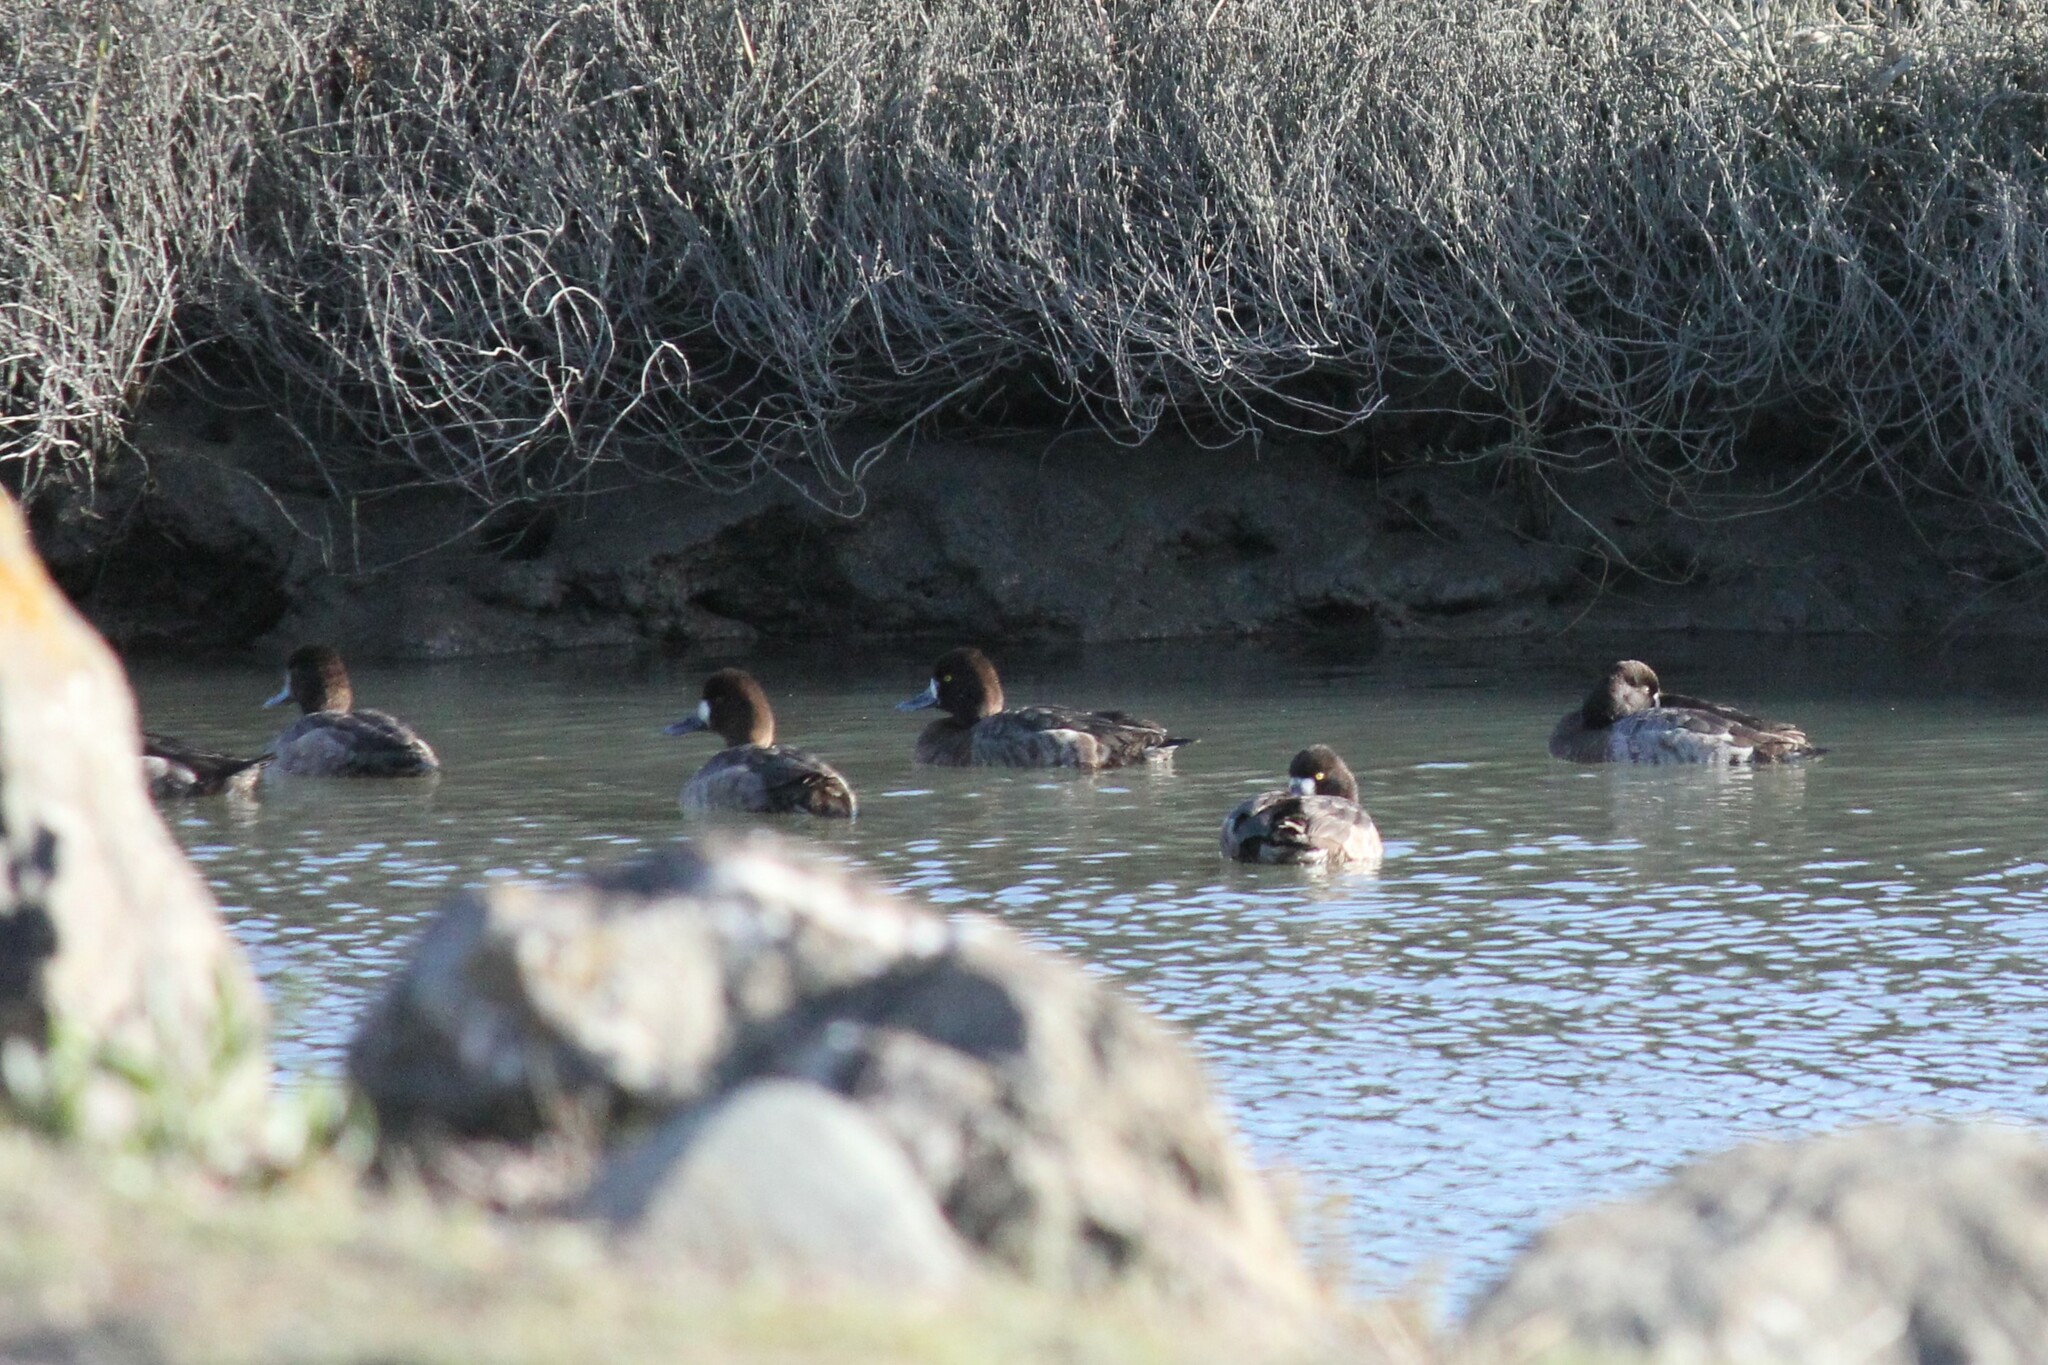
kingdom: Animalia
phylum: Chordata
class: Aves
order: Anseriformes
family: Anatidae
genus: Aythya
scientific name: Aythya affinis
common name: Lesser scaup
